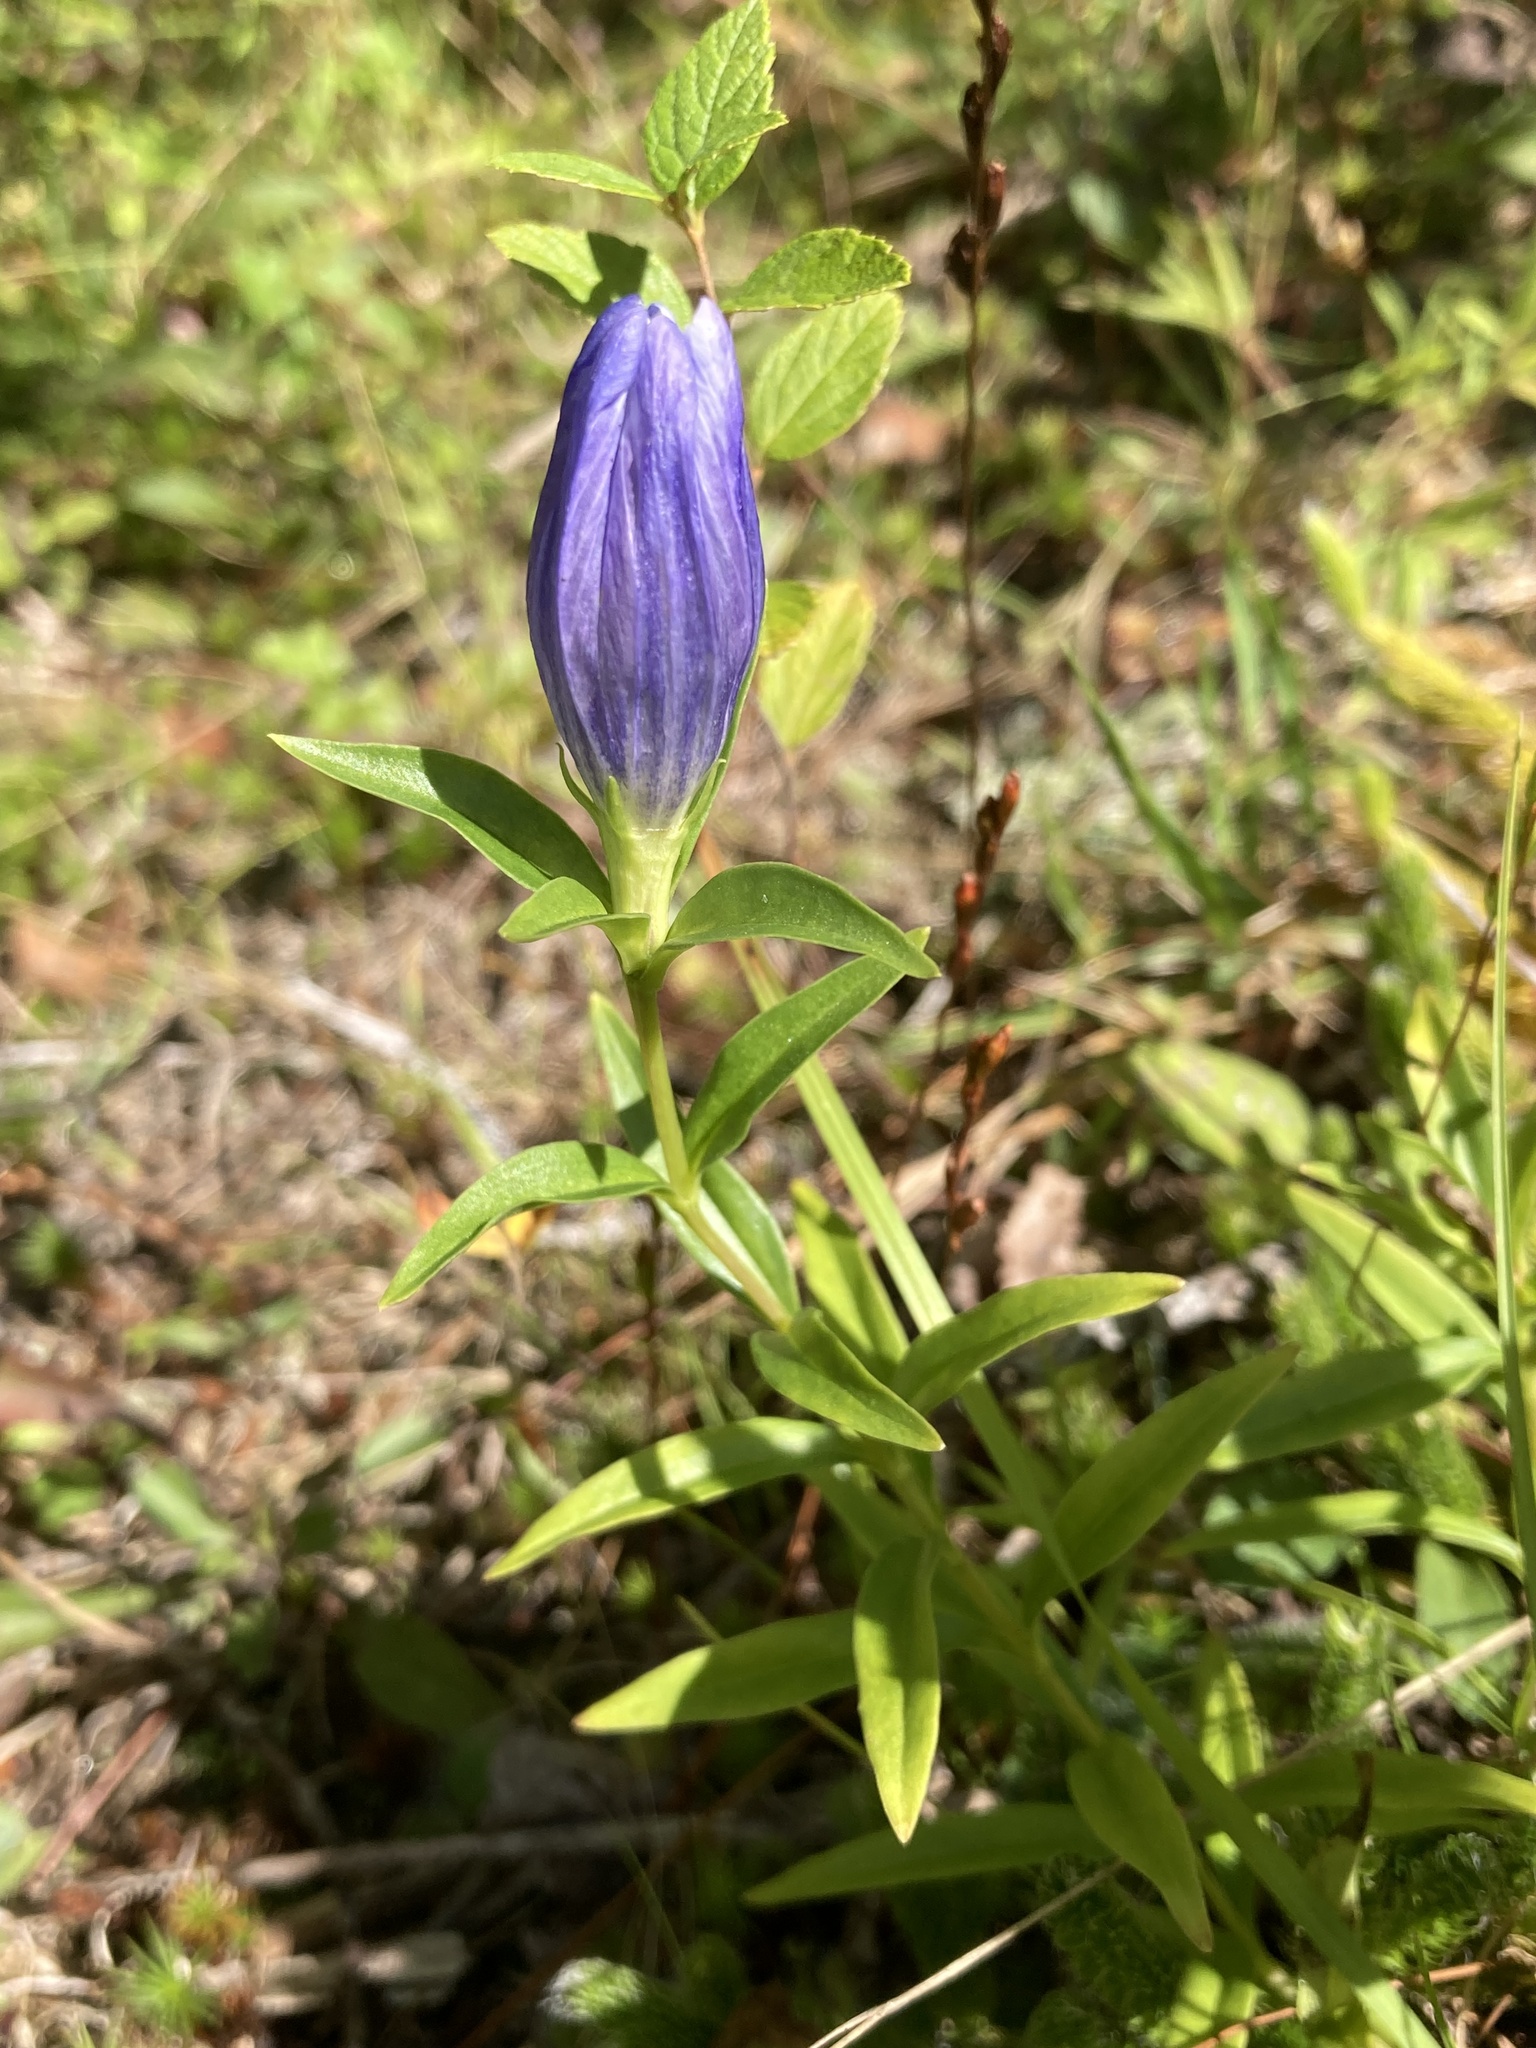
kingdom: Plantae
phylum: Tracheophyta
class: Magnoliopsida
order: Gentianales
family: Gentianaceae
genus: Gentiana
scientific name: Gentiana linearis
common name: Bastard gentian
